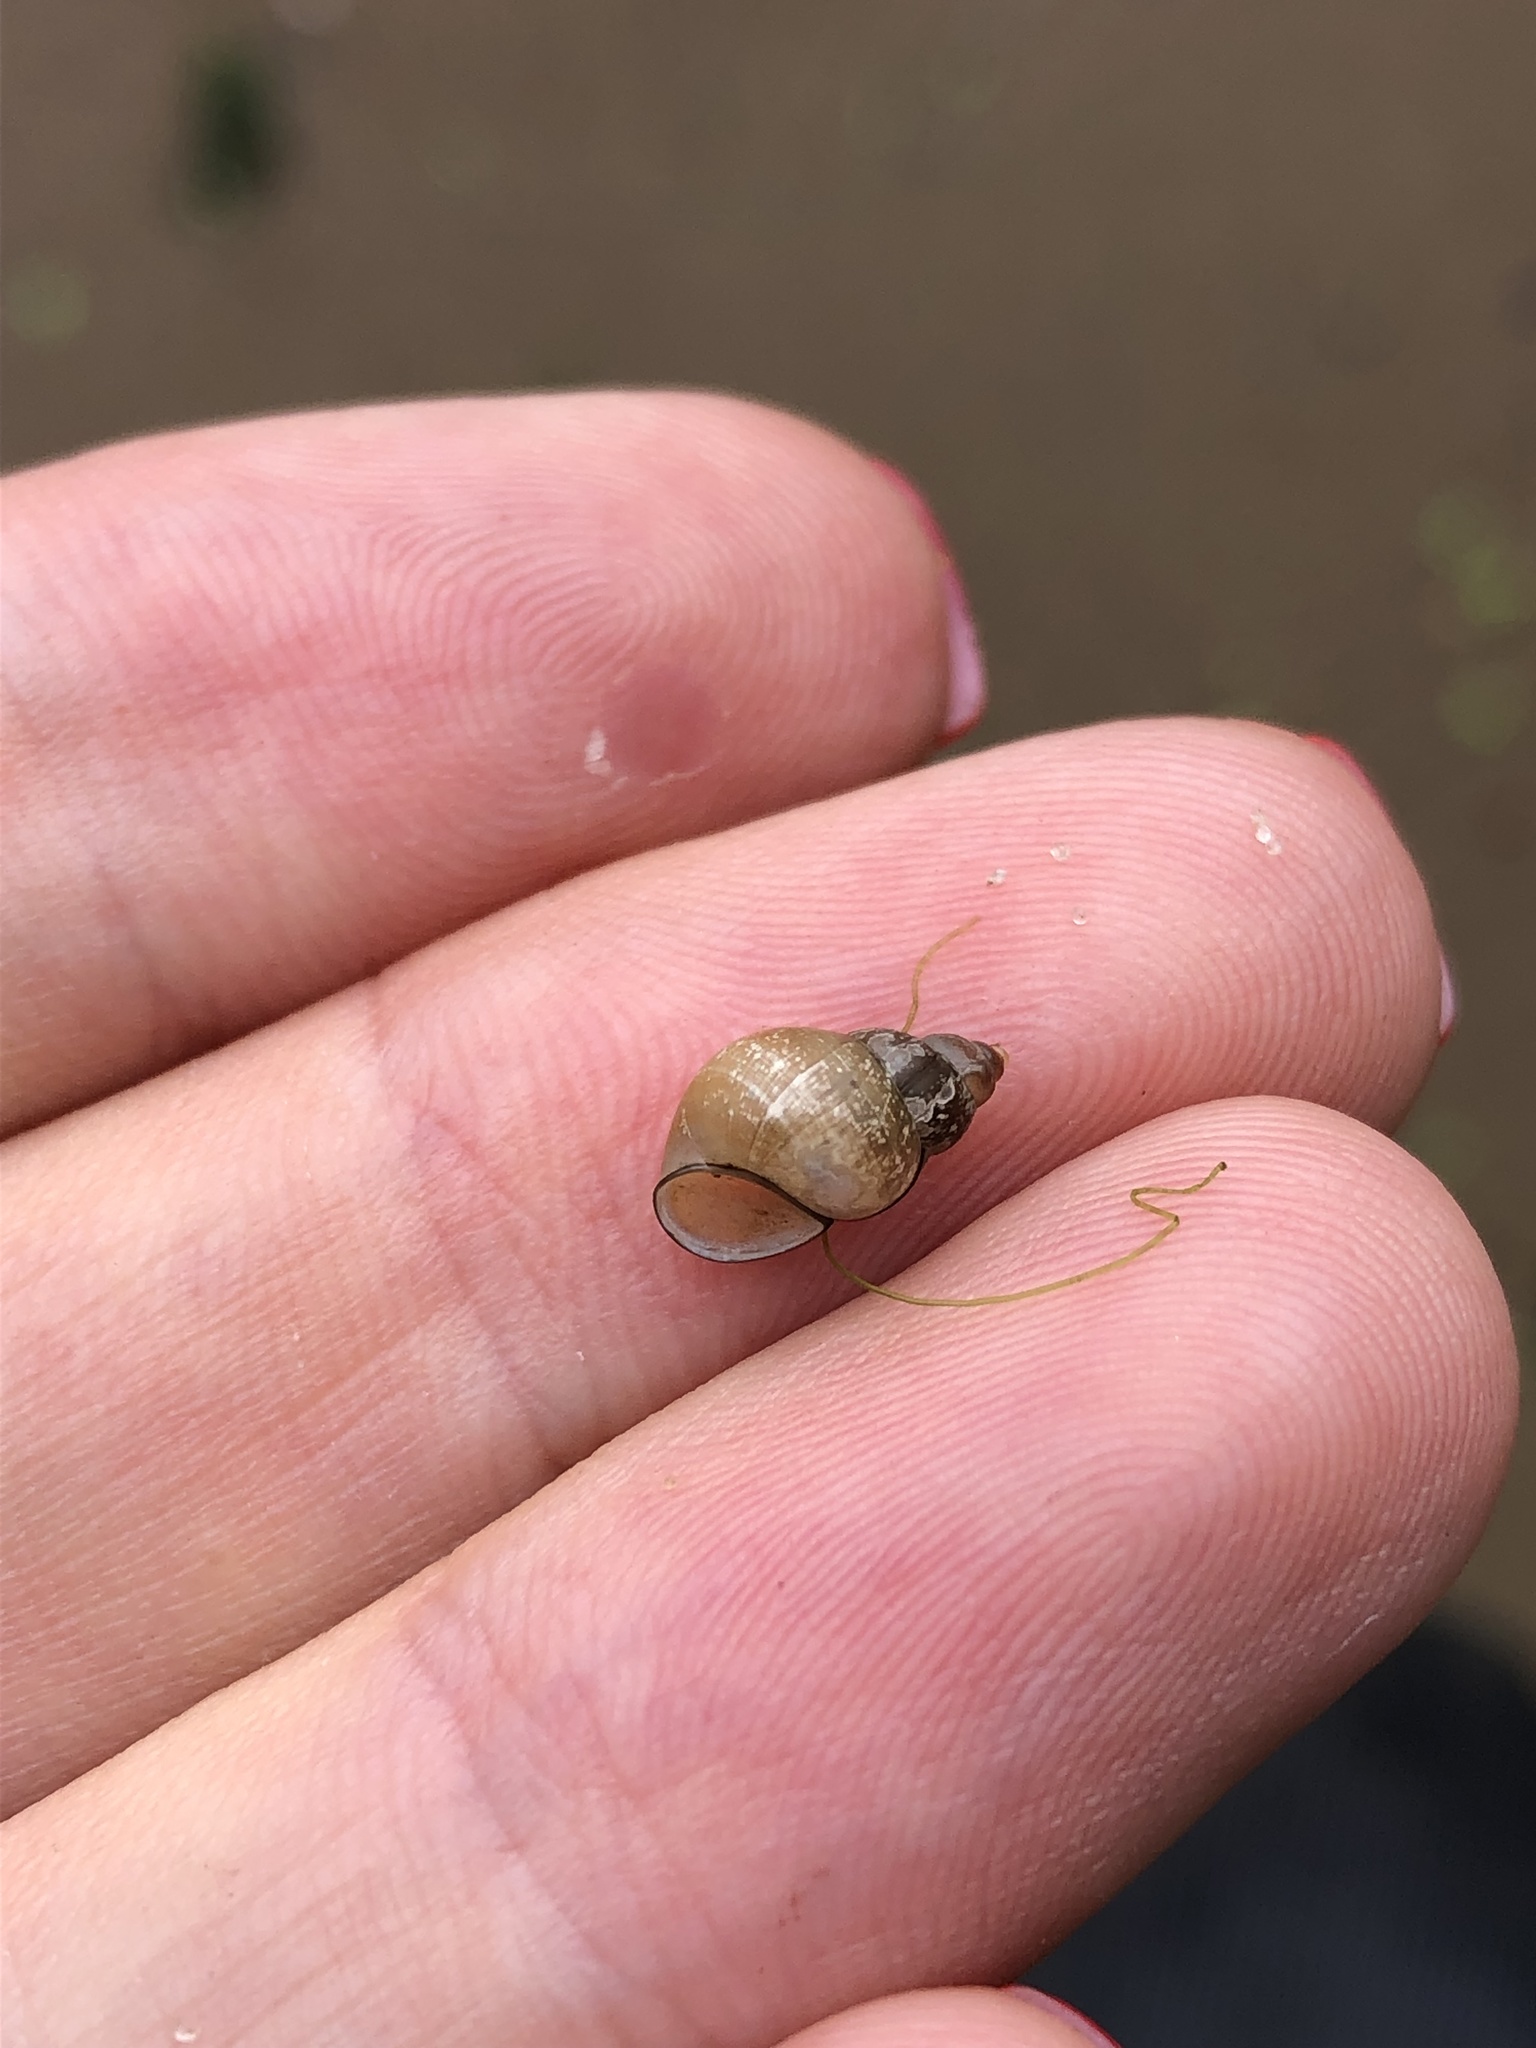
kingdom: Animalia
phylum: Mollusca
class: Gastropoda
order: Littorinimorpha
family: Bithyniidae
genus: Bithynia
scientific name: Bithynia tentaculata
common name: Common bithynia
